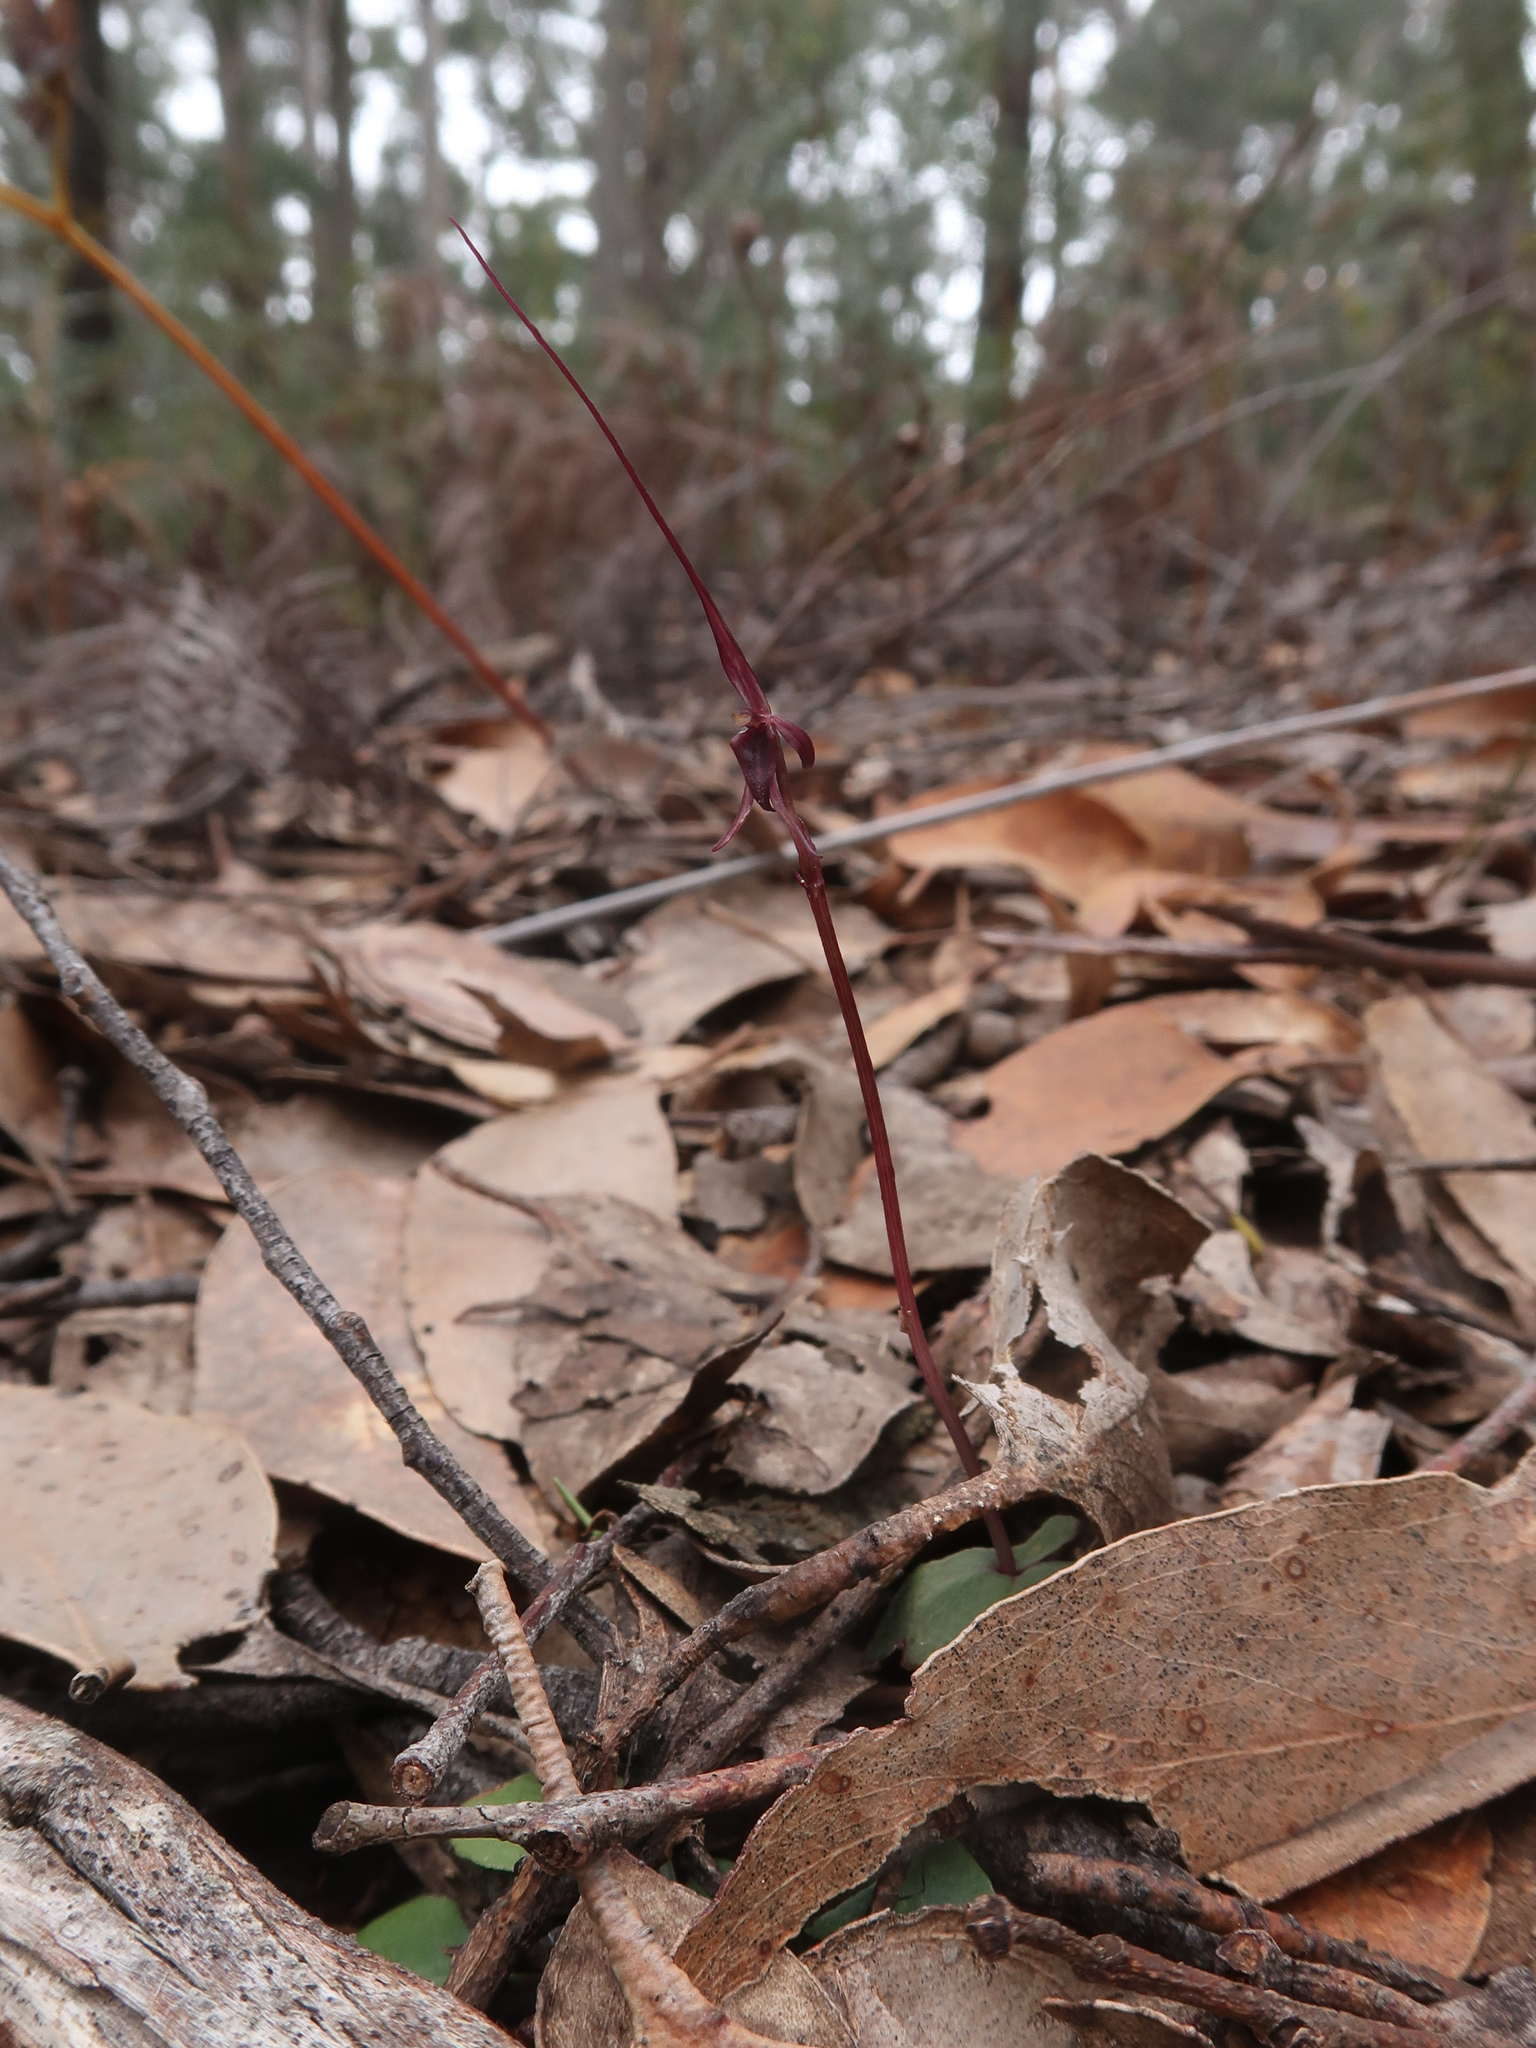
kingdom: Plantae
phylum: Tracheophyta
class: Liliopsida
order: Asparagales
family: Orchidaceae
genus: Acianthus
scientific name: Acianthus caudatus
